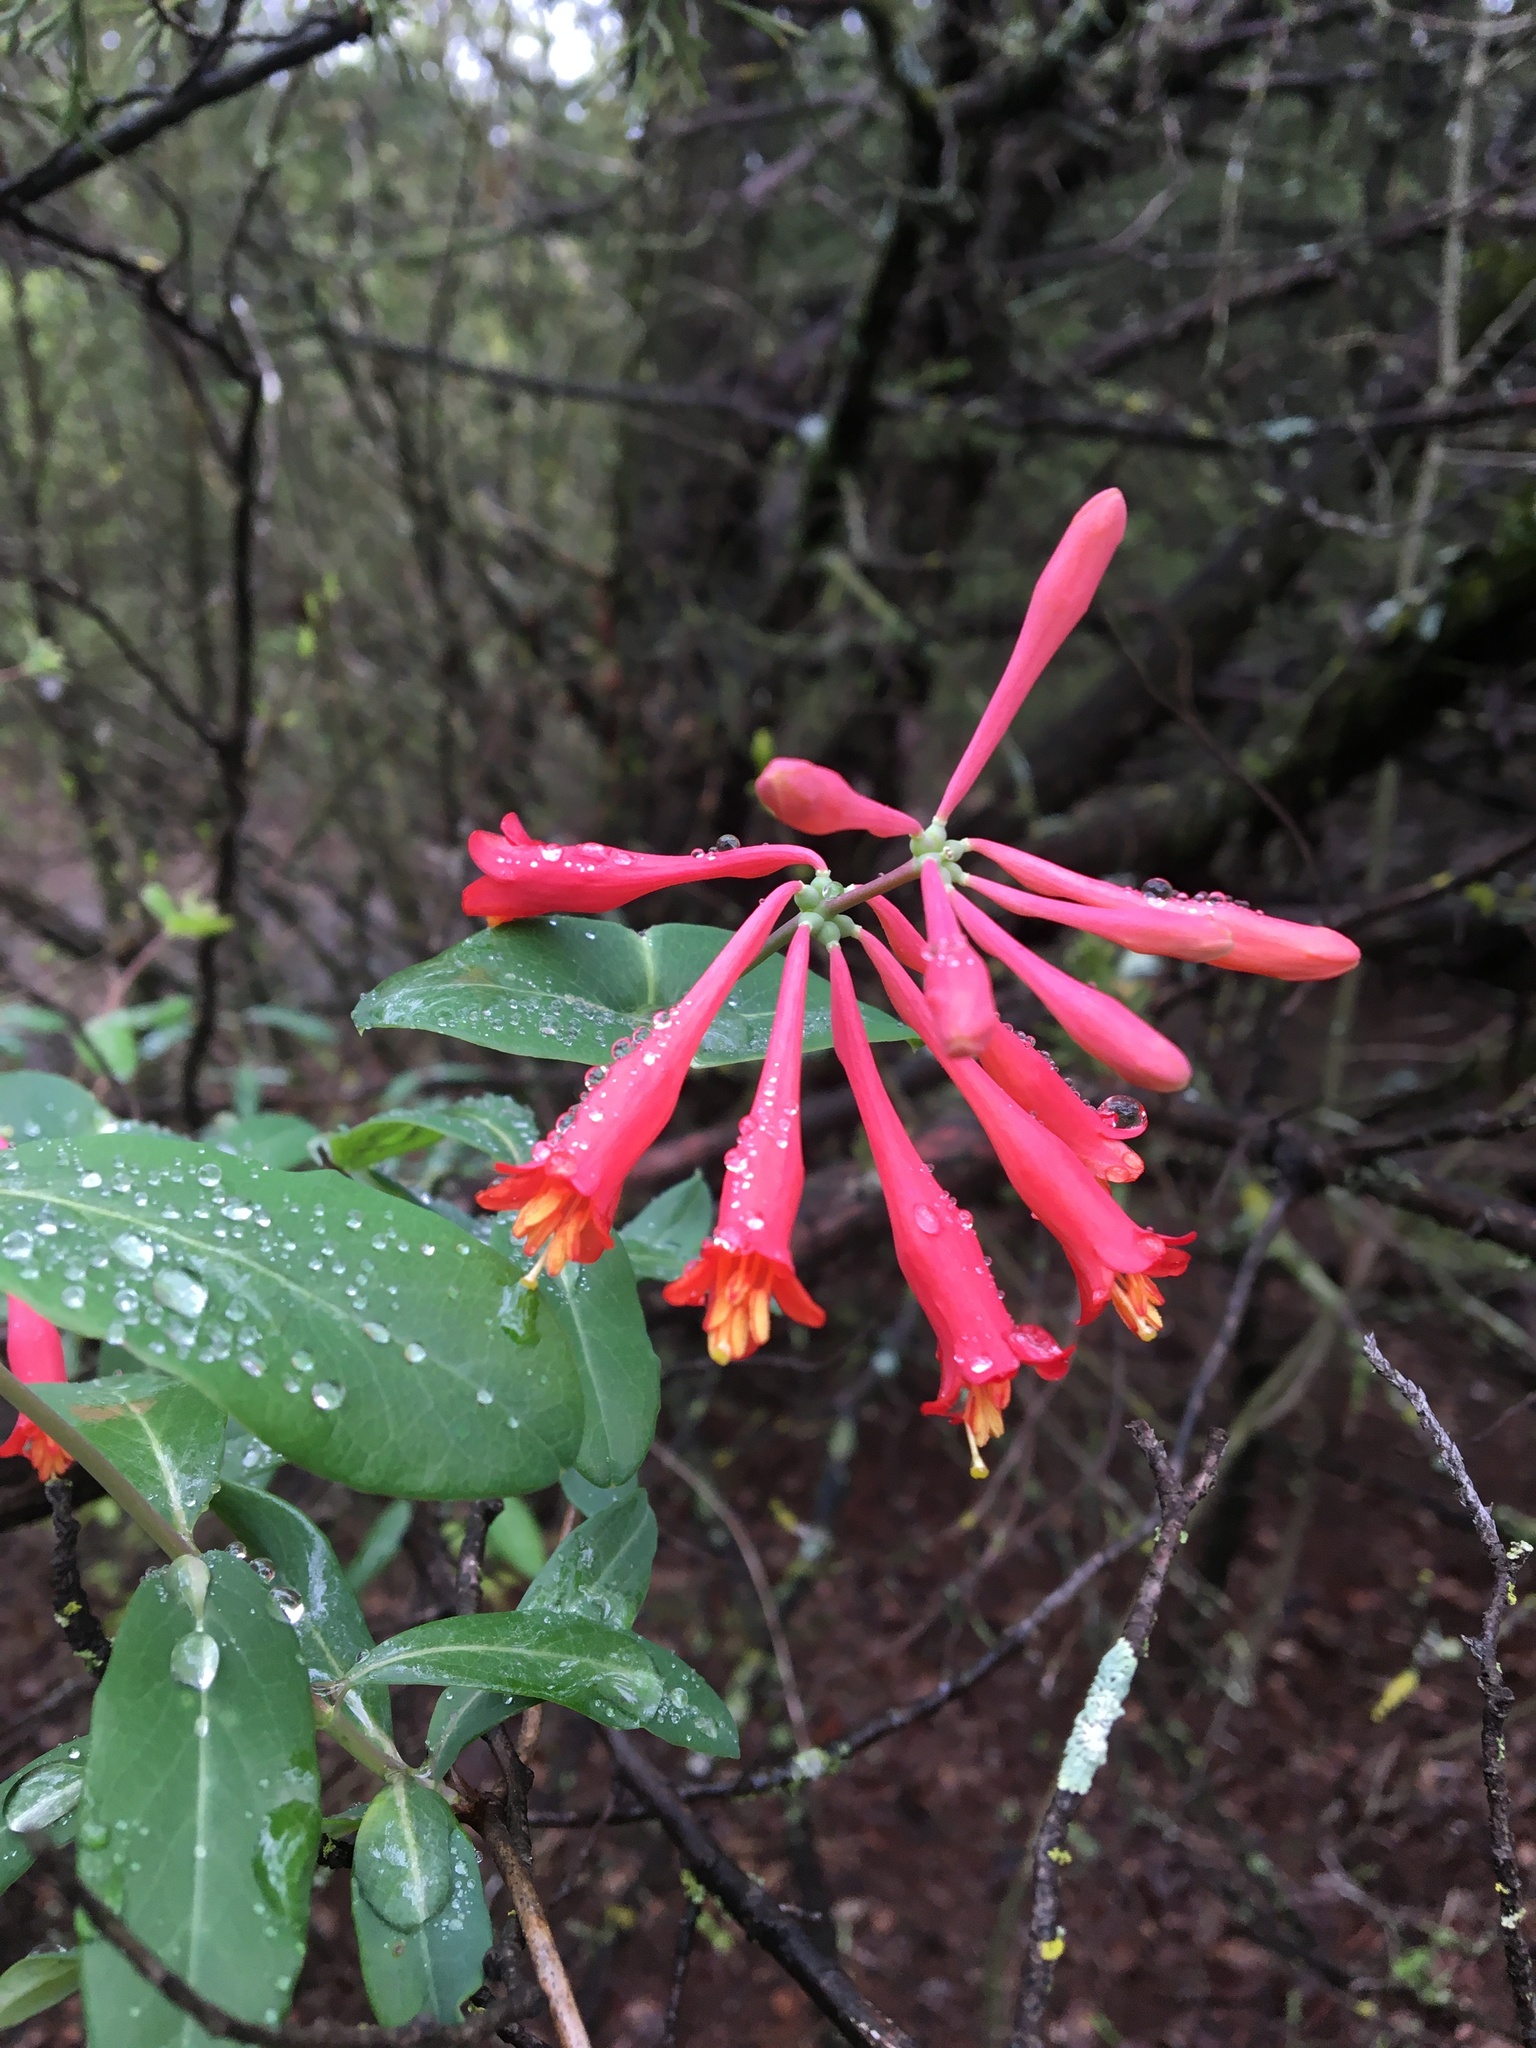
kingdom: Plantae
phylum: Tracheophyta
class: Magnoliopsida
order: Dipsacales
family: Caprifoliaceae
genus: Lonicera
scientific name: Lonicera sempervirens
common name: Coral honeysuckle
